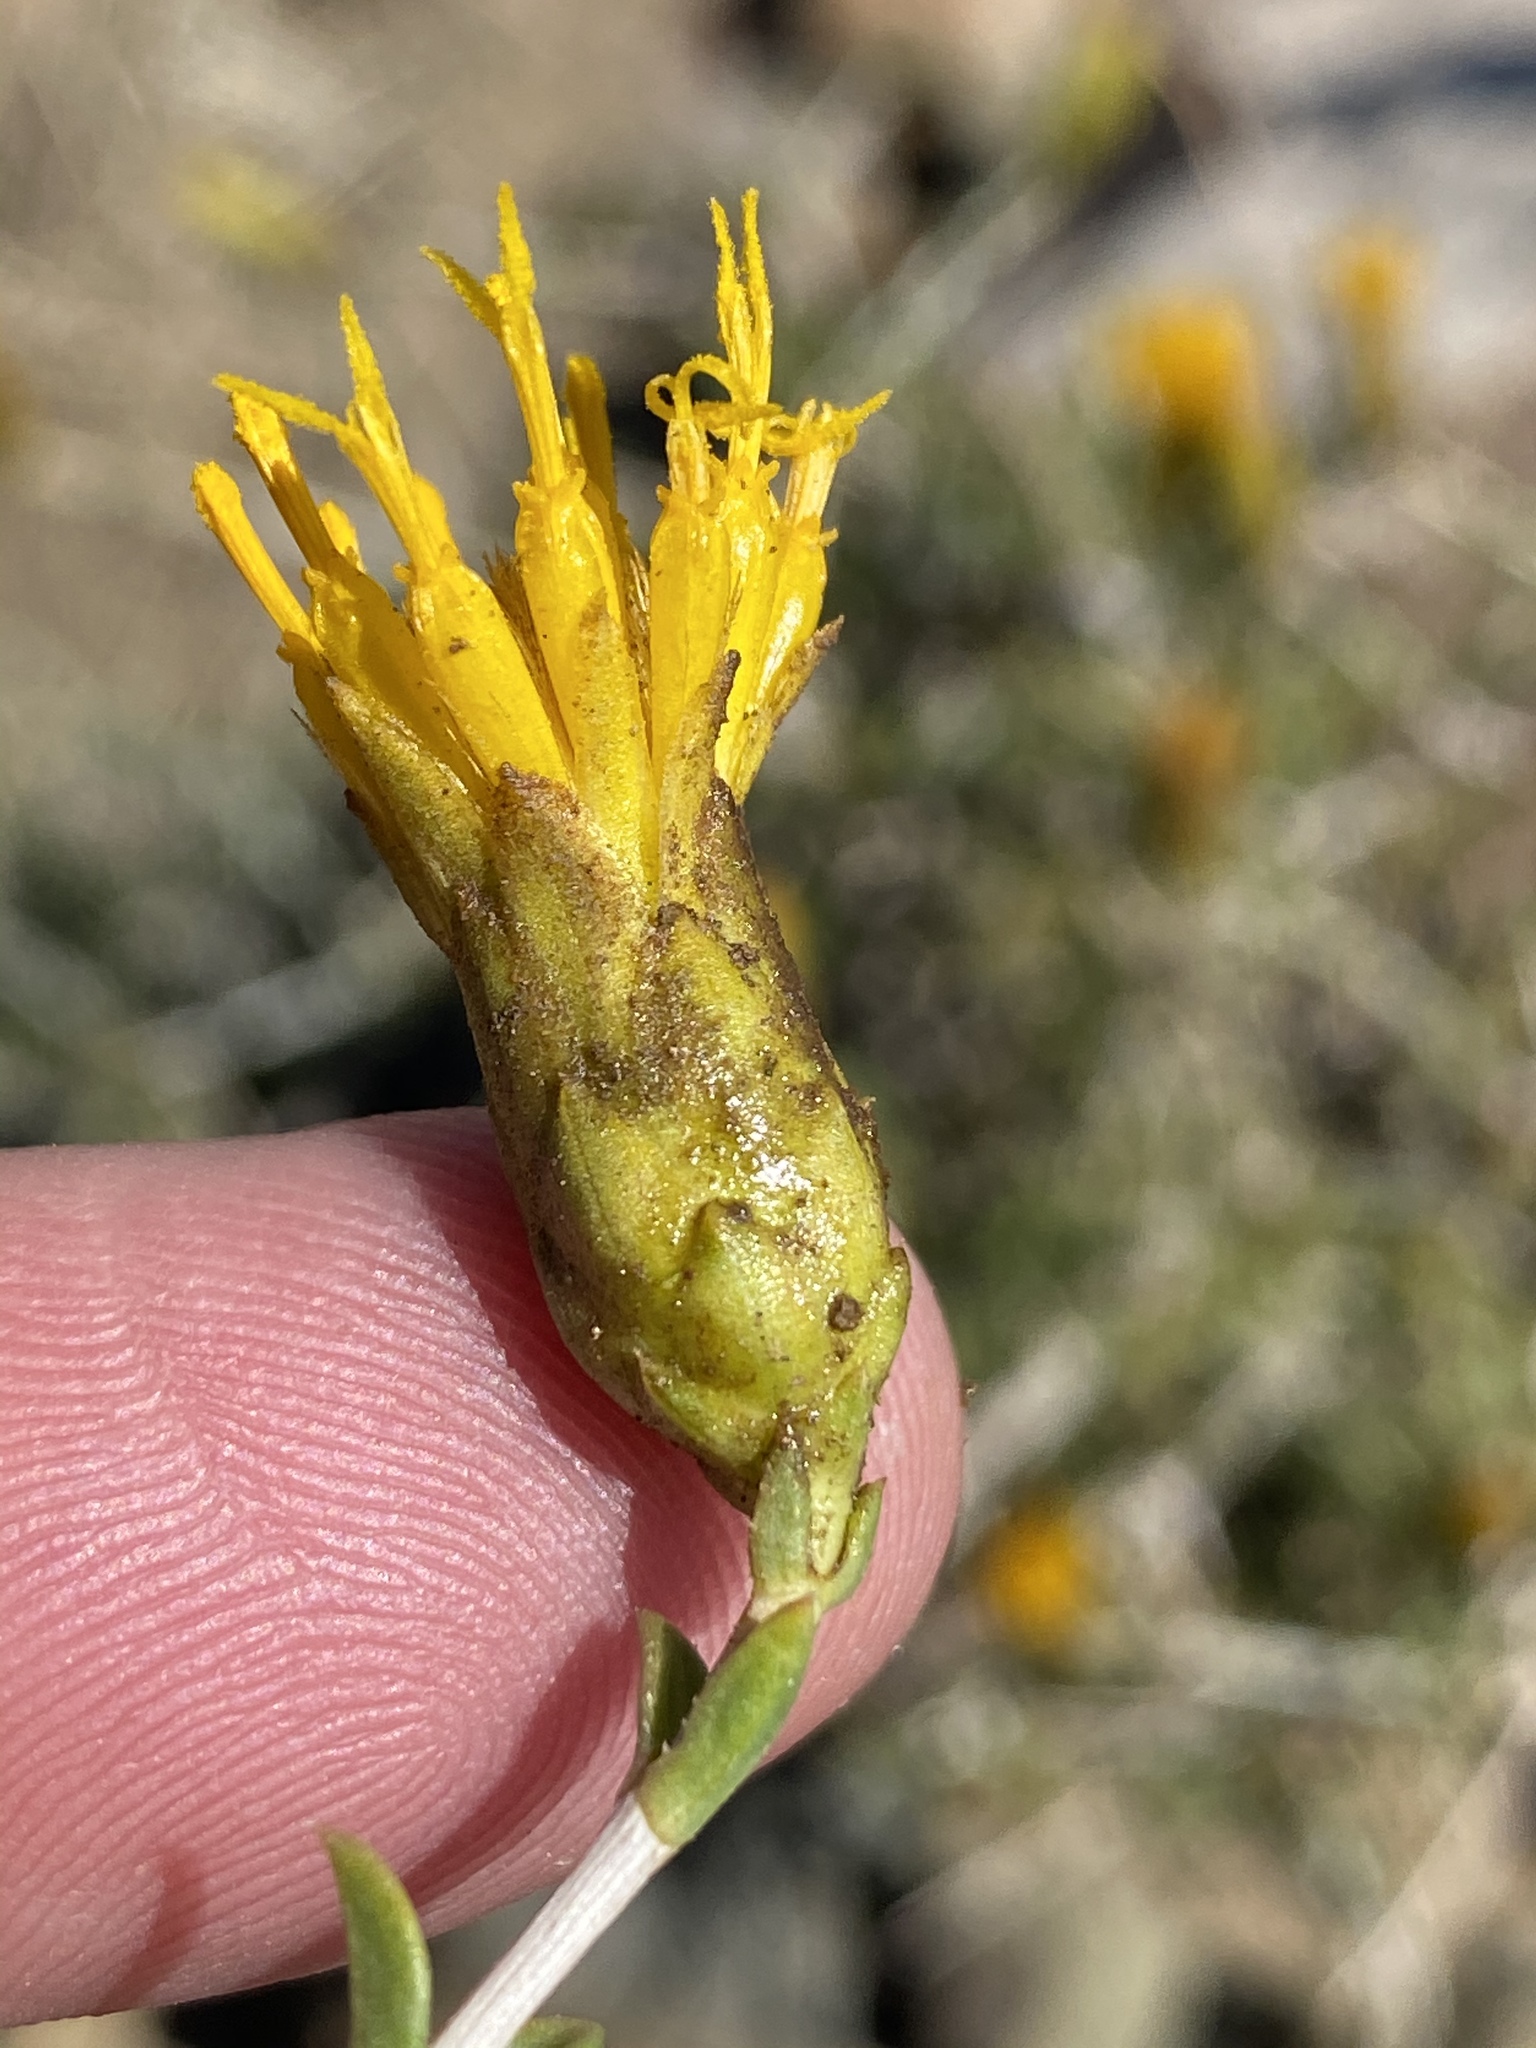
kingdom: Plantae
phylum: Tracheophyta
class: Magnoliopsida
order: Asterales
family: Asteraceae
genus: Pteronia
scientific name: Pteronia viscosa
